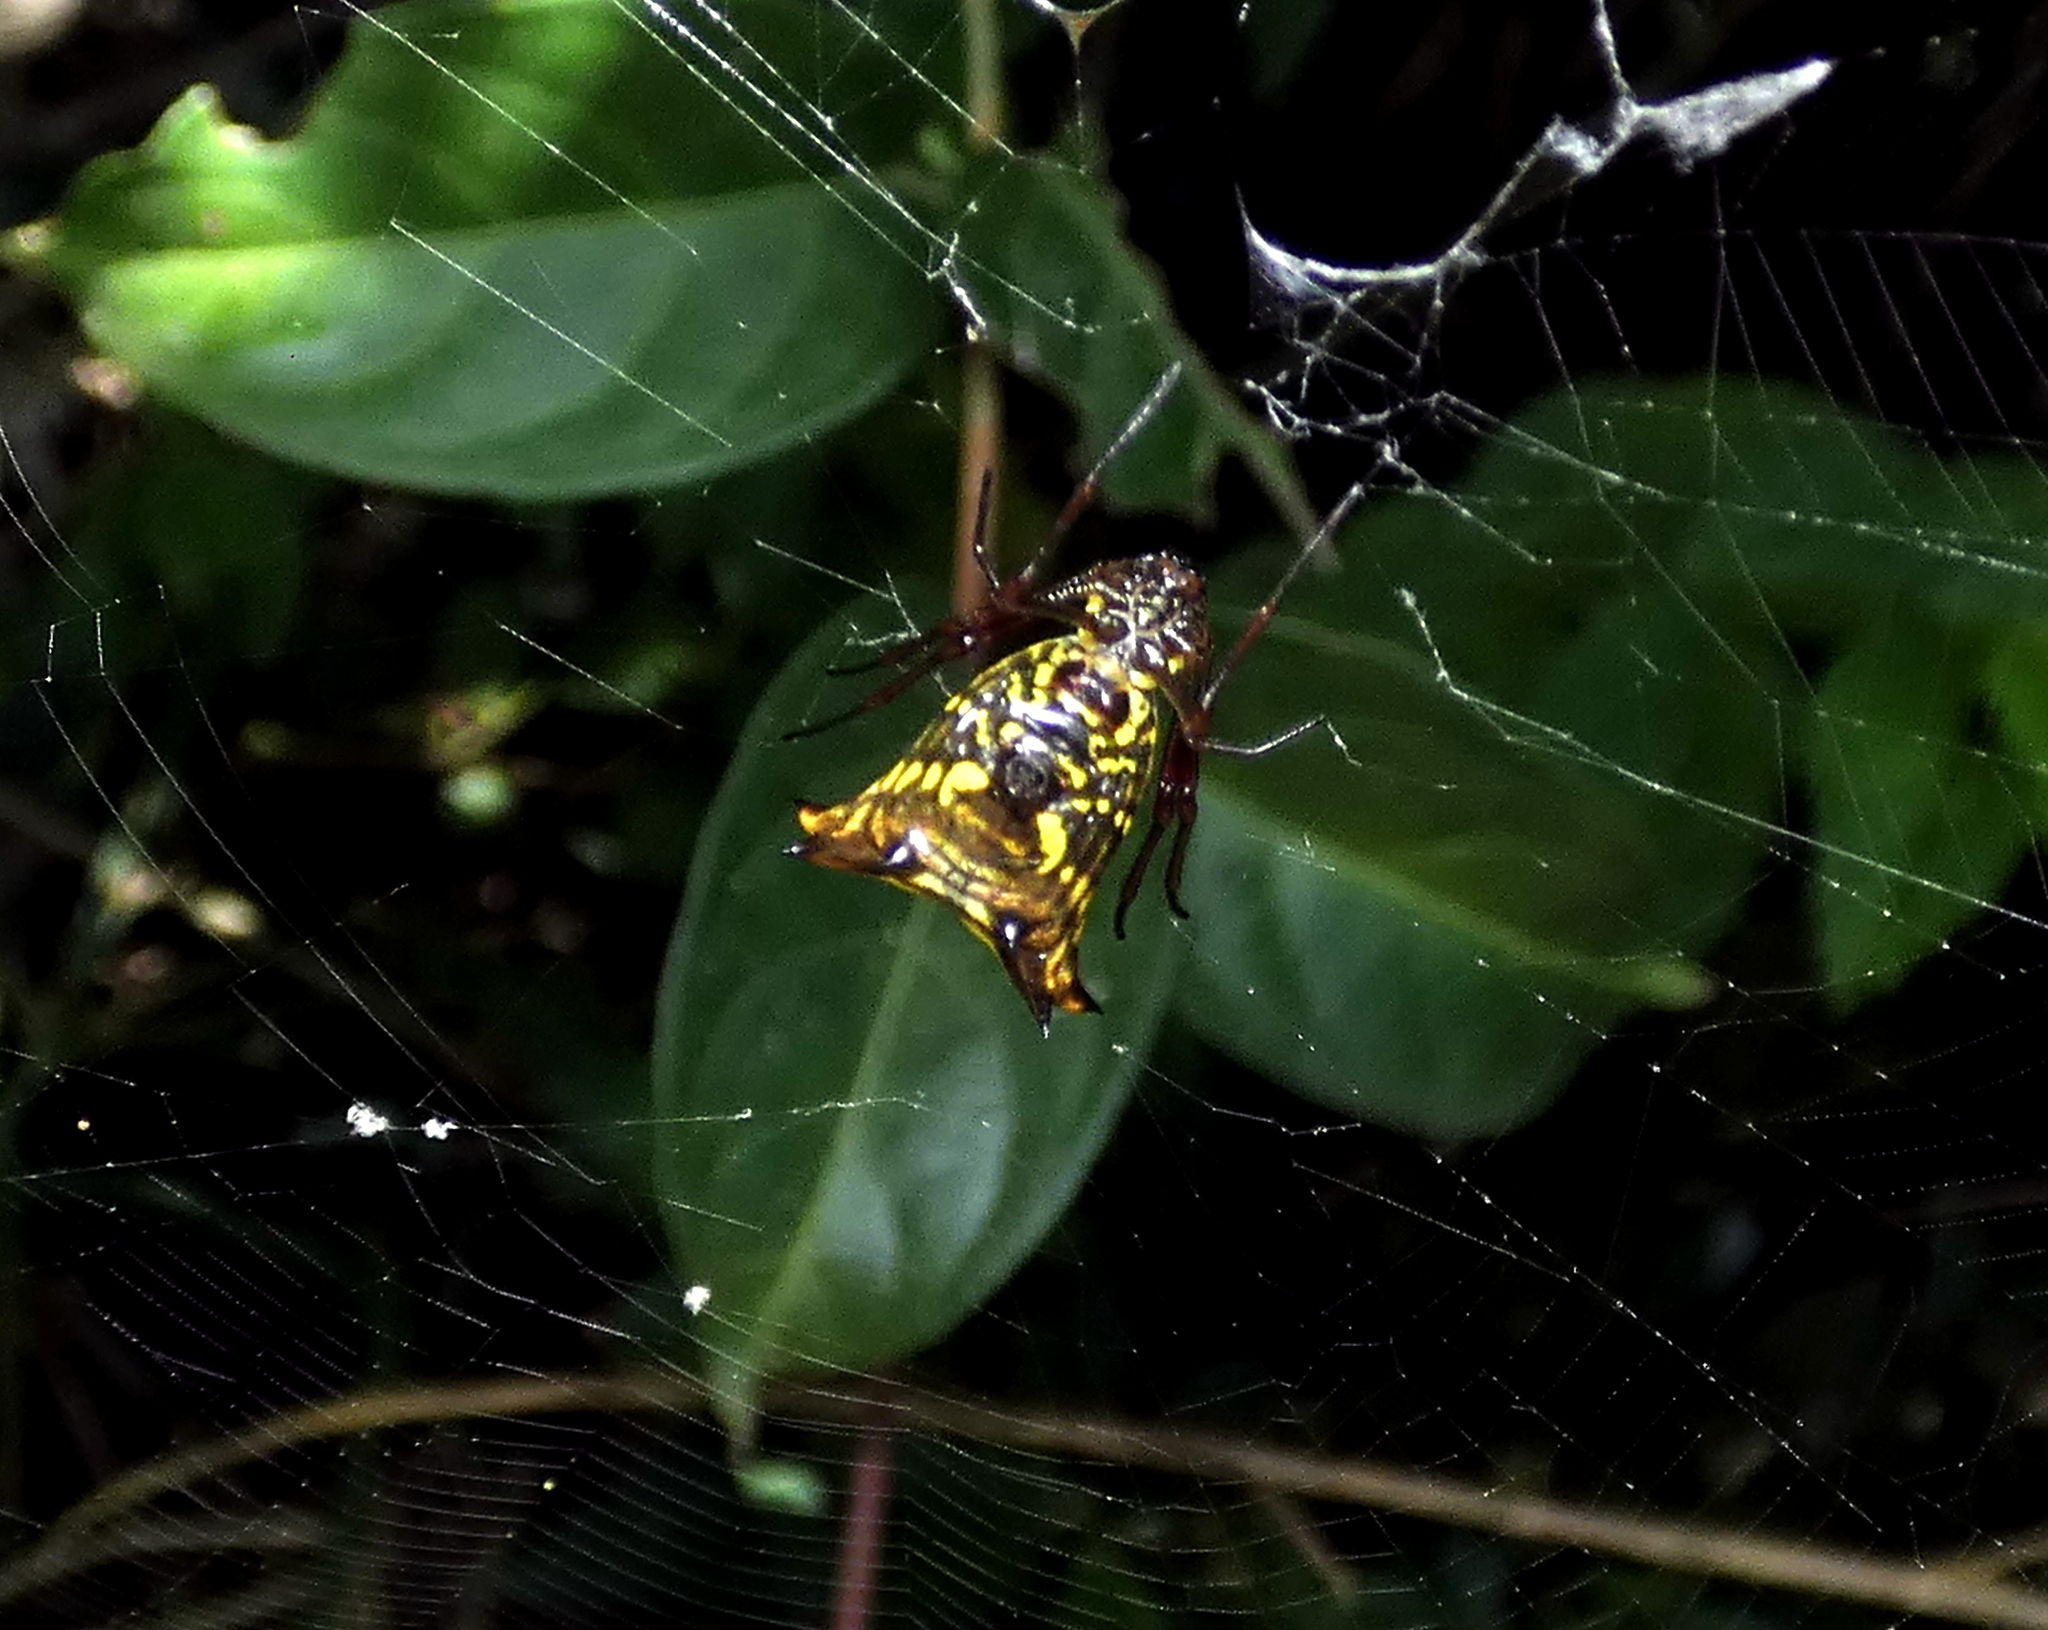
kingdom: Animalia
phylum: Arthropoda
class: Arachnida
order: Araneae
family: Araneidae
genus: Micrathena
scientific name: Micrathena fissispina
